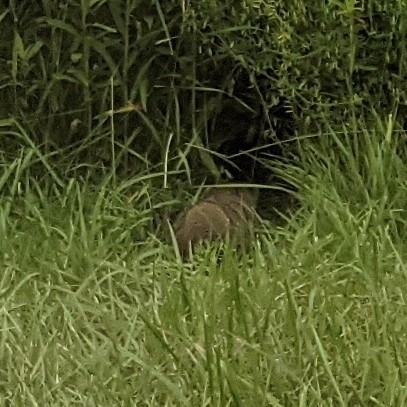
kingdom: Animalia
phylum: Chordata
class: Mammalia
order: Rodentia
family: Sciuridae
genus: Marmota
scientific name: Marmota monax
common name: Groundhog
